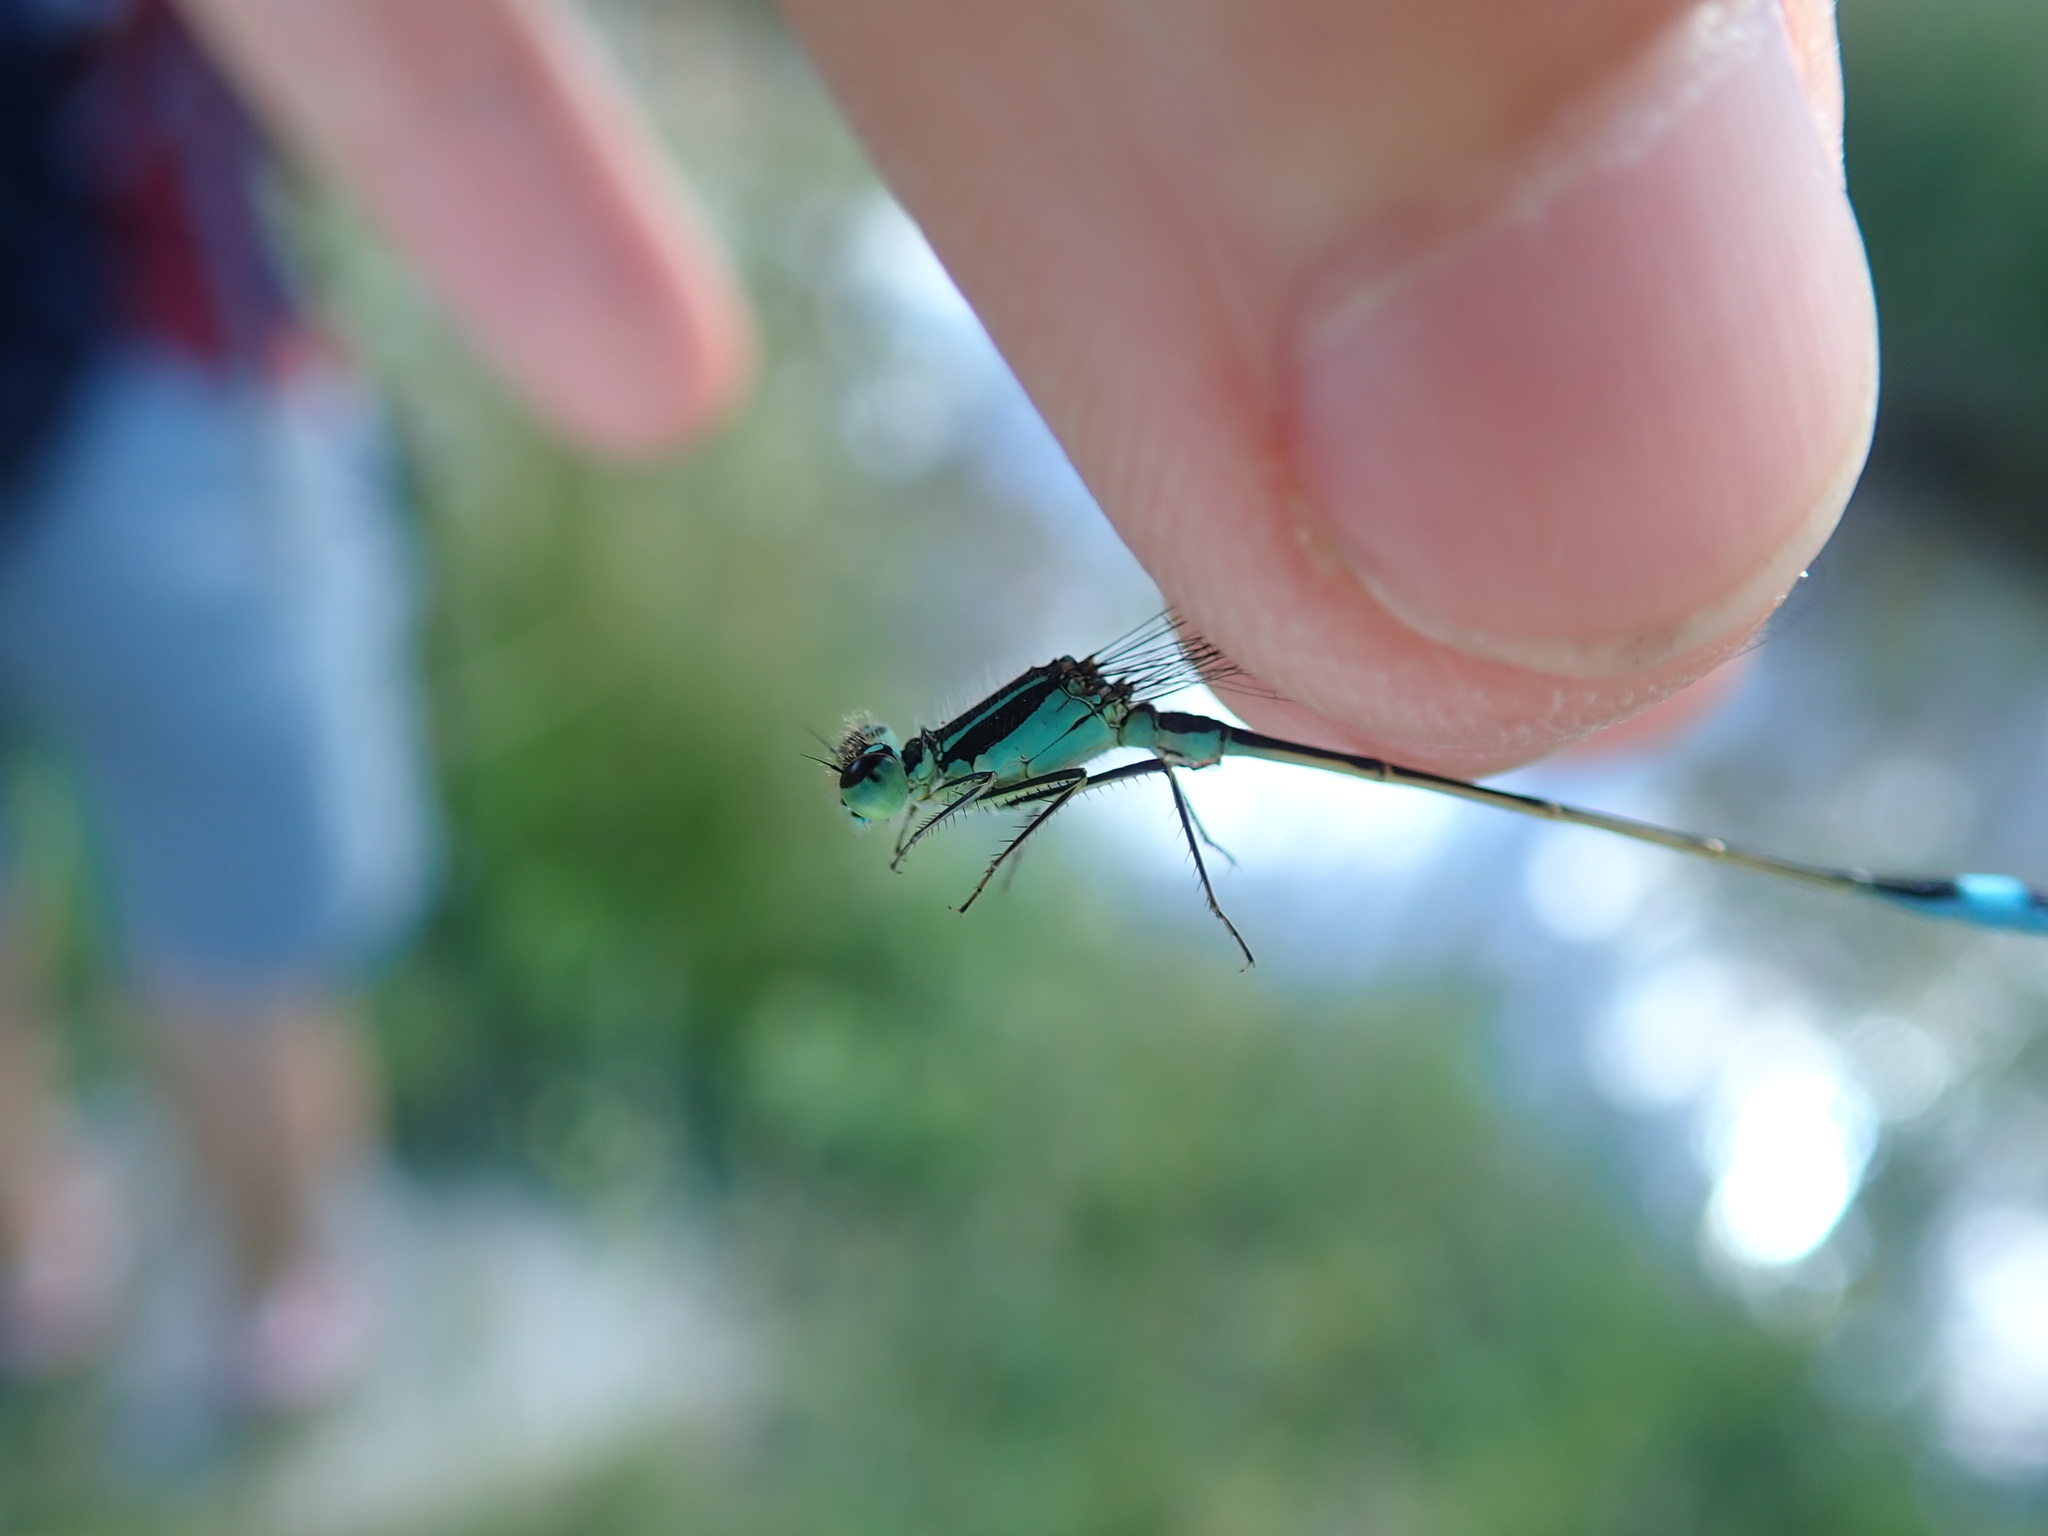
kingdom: Animalia
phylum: Arthropoda
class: Insecta
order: Odonata
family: Coenagrionidae
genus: Ischnura
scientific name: Ischnura elegans
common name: Blue-tailed damselfly
